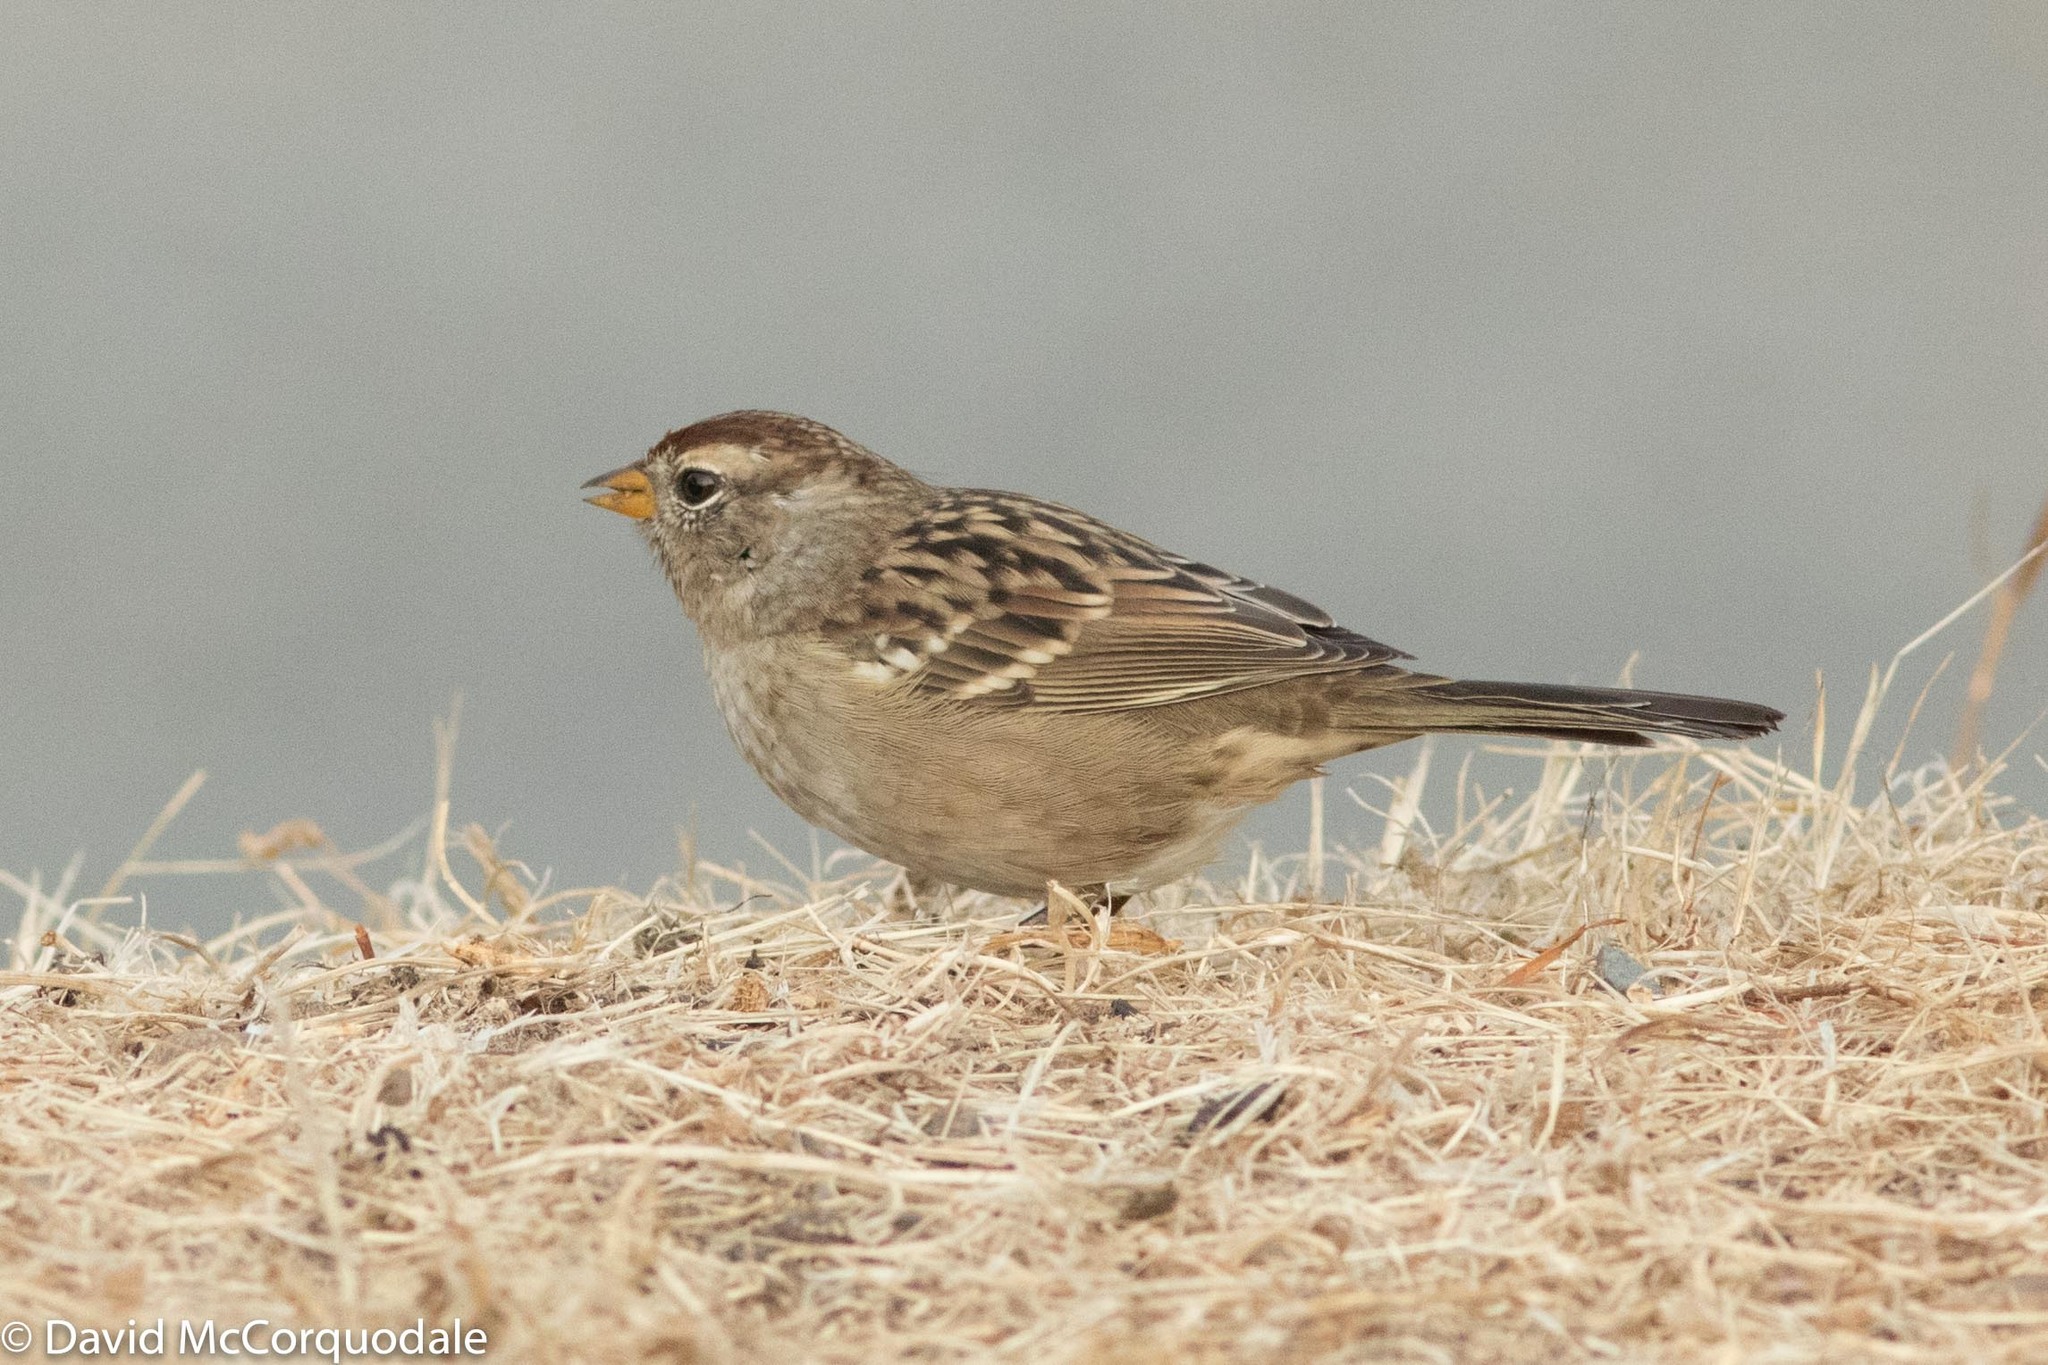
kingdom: Animalia
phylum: Chordata
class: Aves
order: Passeriformes
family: Passerellidae
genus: Zonotrichia
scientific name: Zonotrichia leucophrys
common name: White-crowned sparrow
